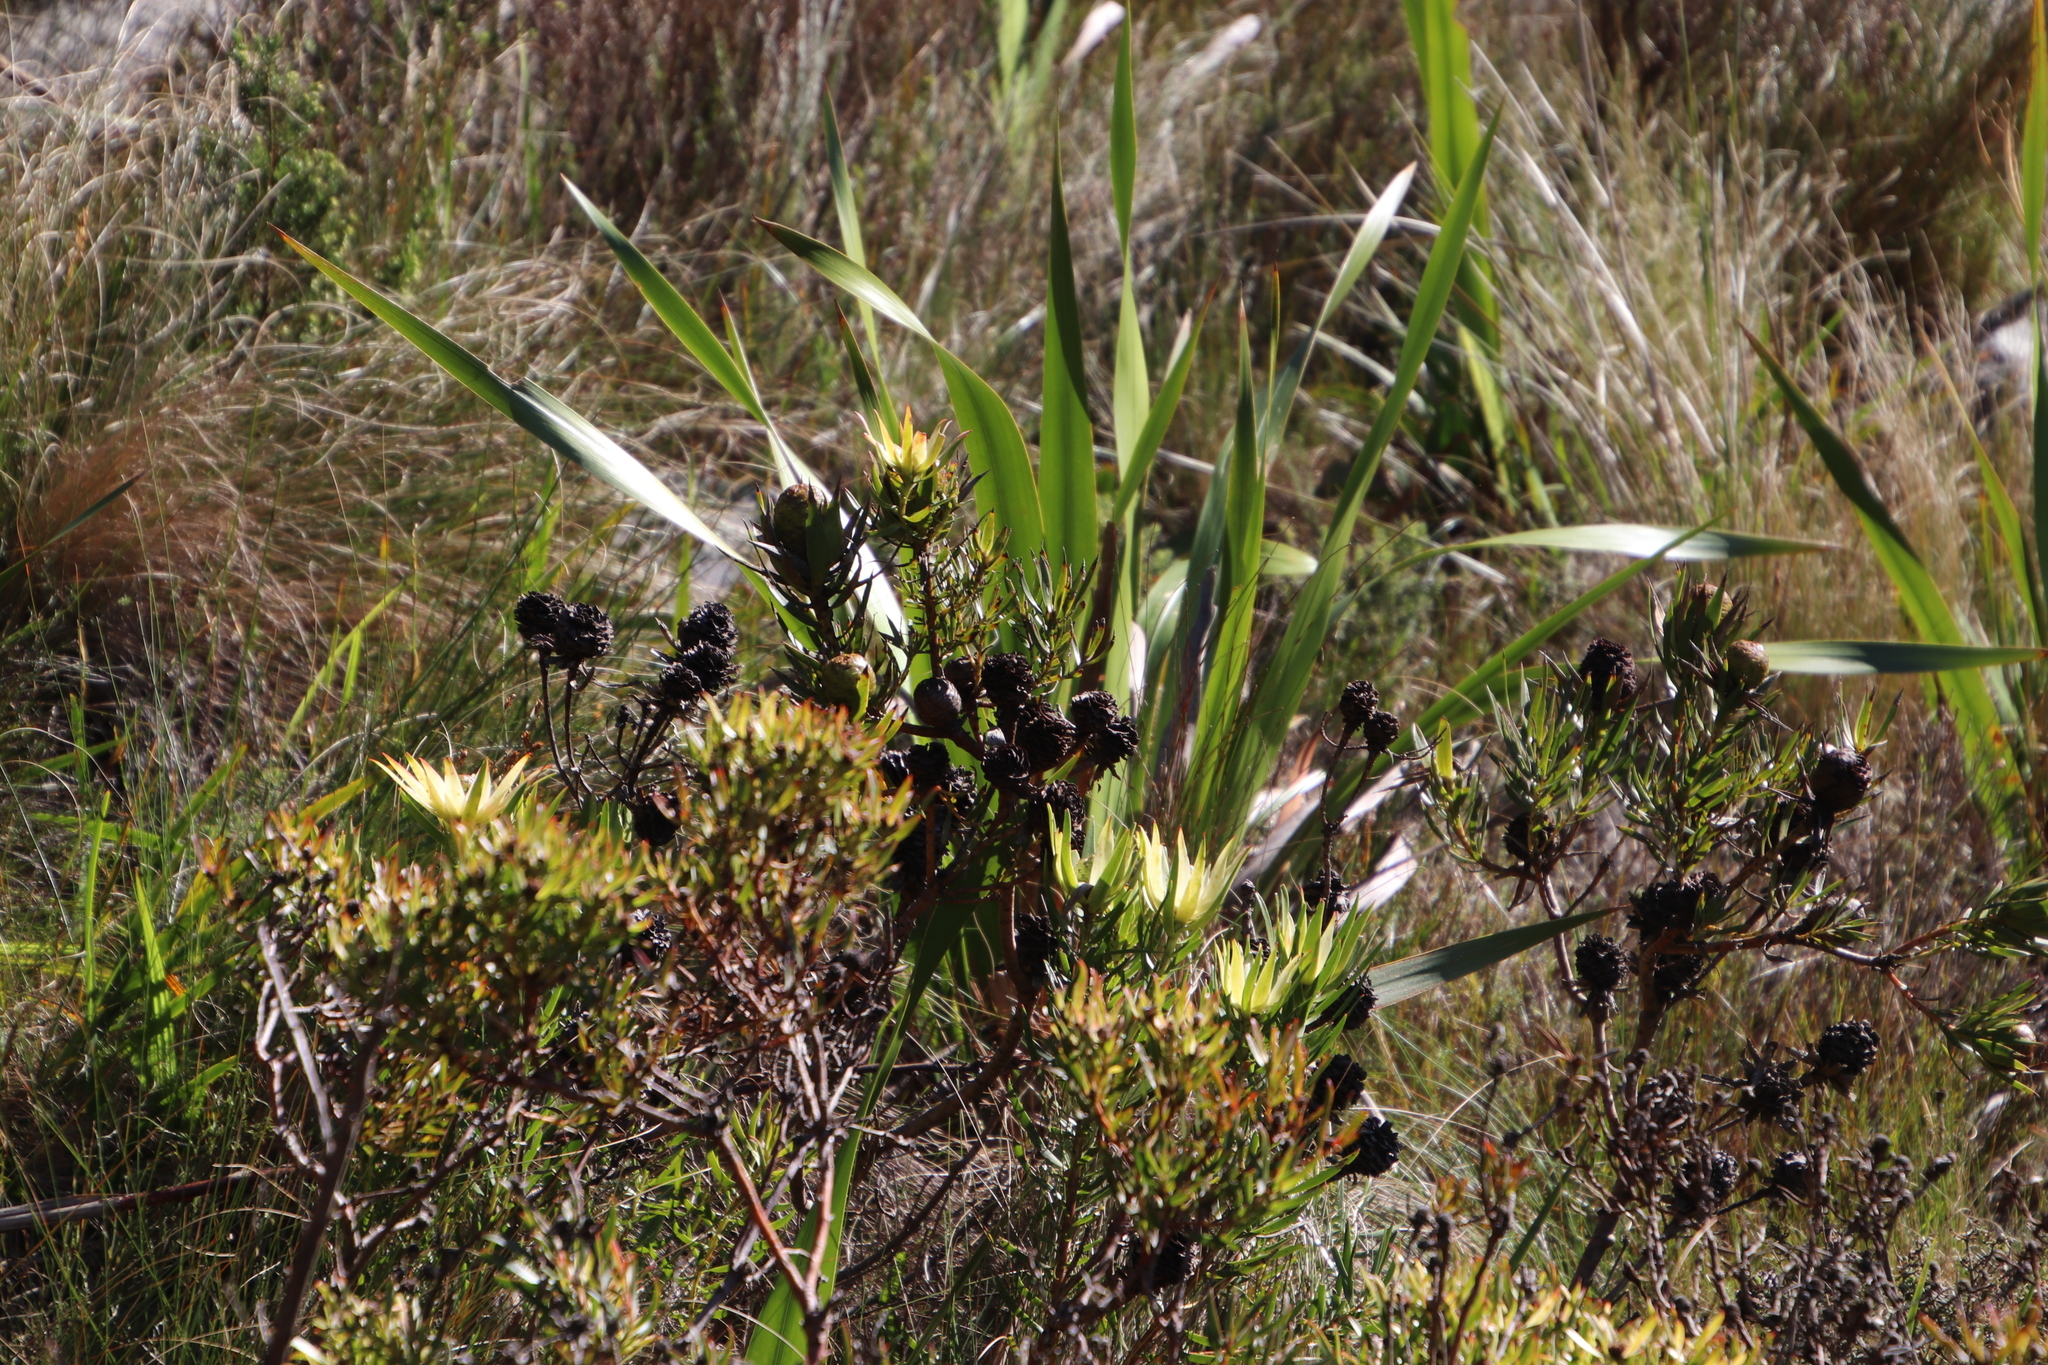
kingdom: Plantae
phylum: Tracheophyta
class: Magnoliopsida
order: Proteales
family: Proteaceae
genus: Leucadendron
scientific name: Leucadendron spissifolium
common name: Spear-leaf conebush
